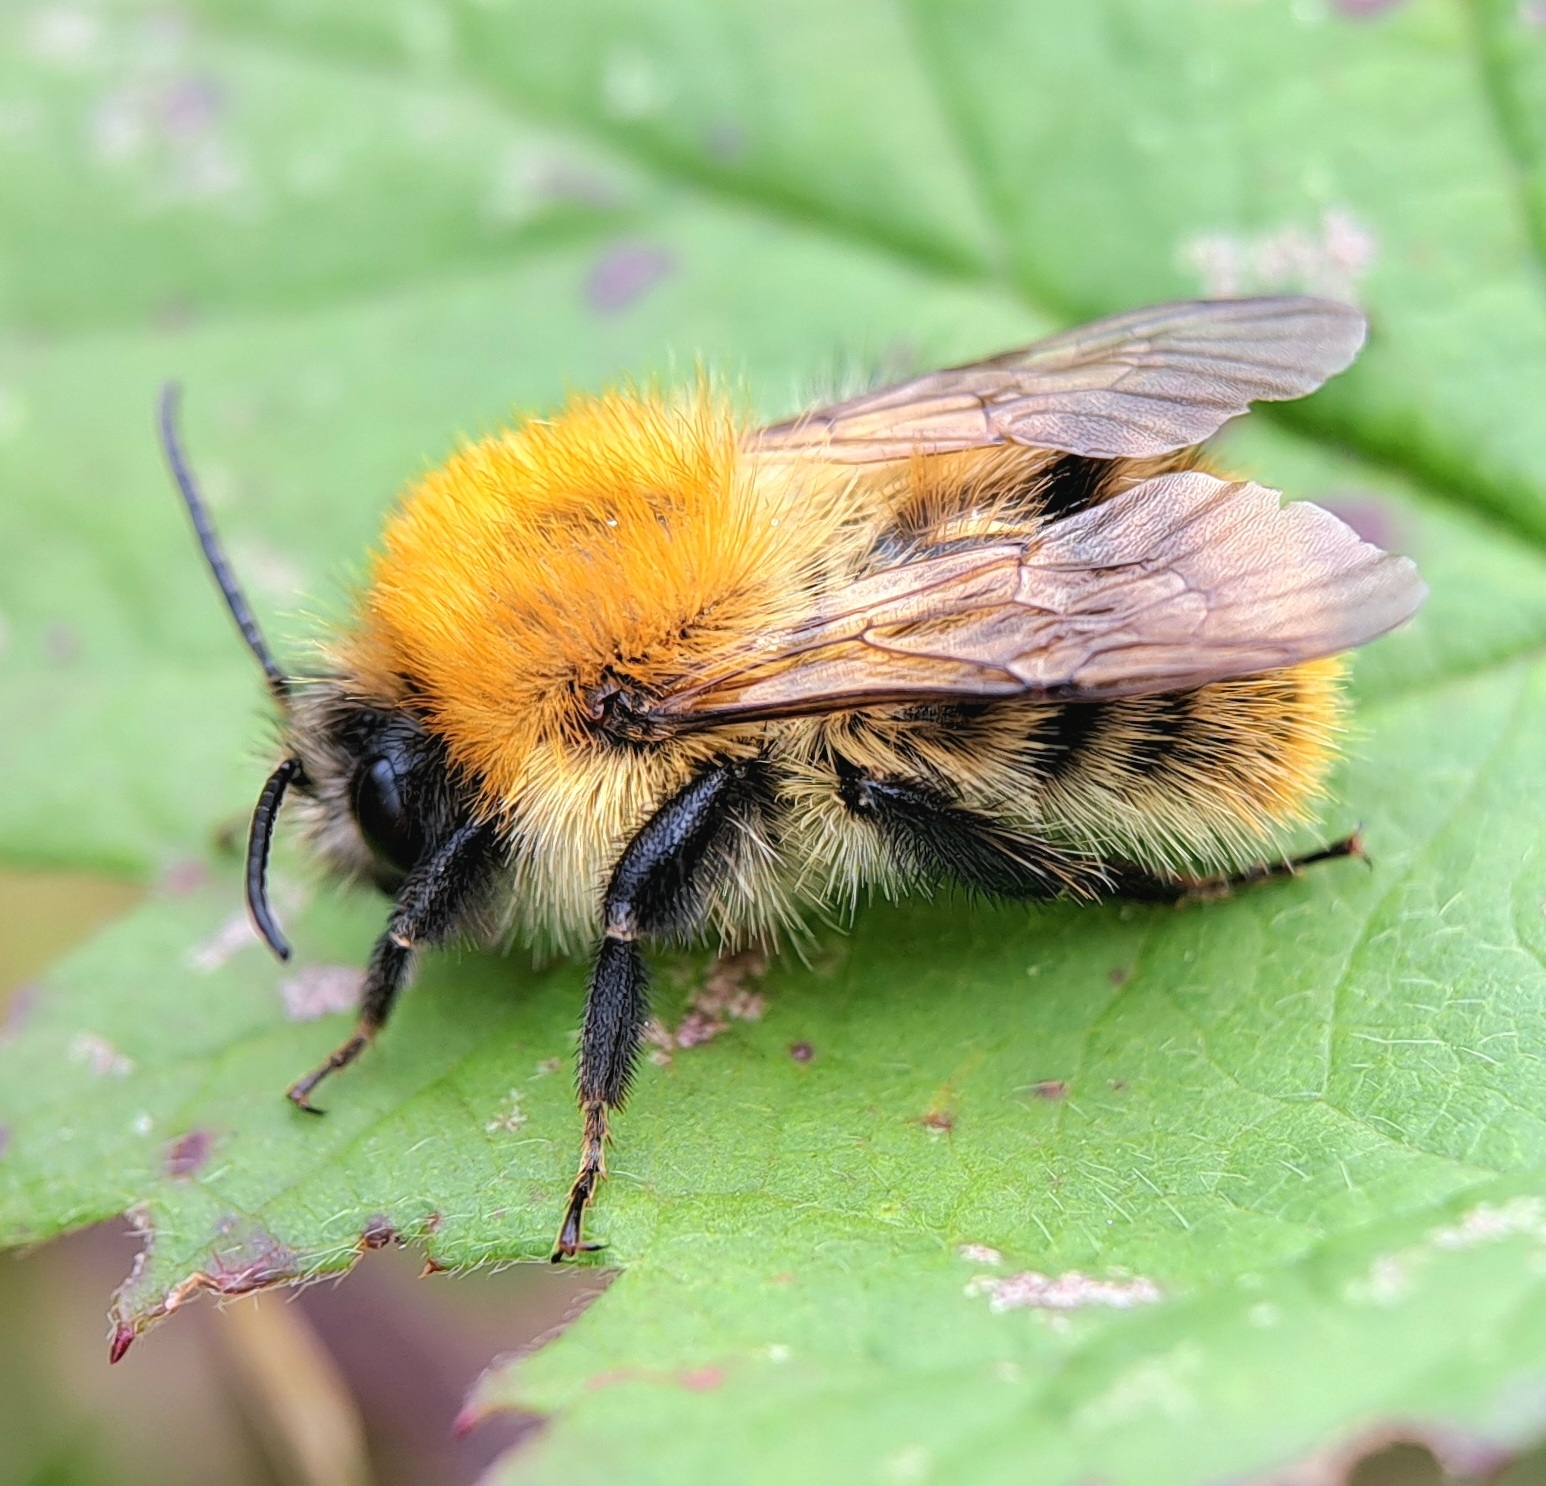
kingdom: Animalia
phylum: Arthropoda
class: Insecta
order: Hymenoptera
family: Apidae
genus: Bombus
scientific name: Bombus pascuorum
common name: Common carder bee
